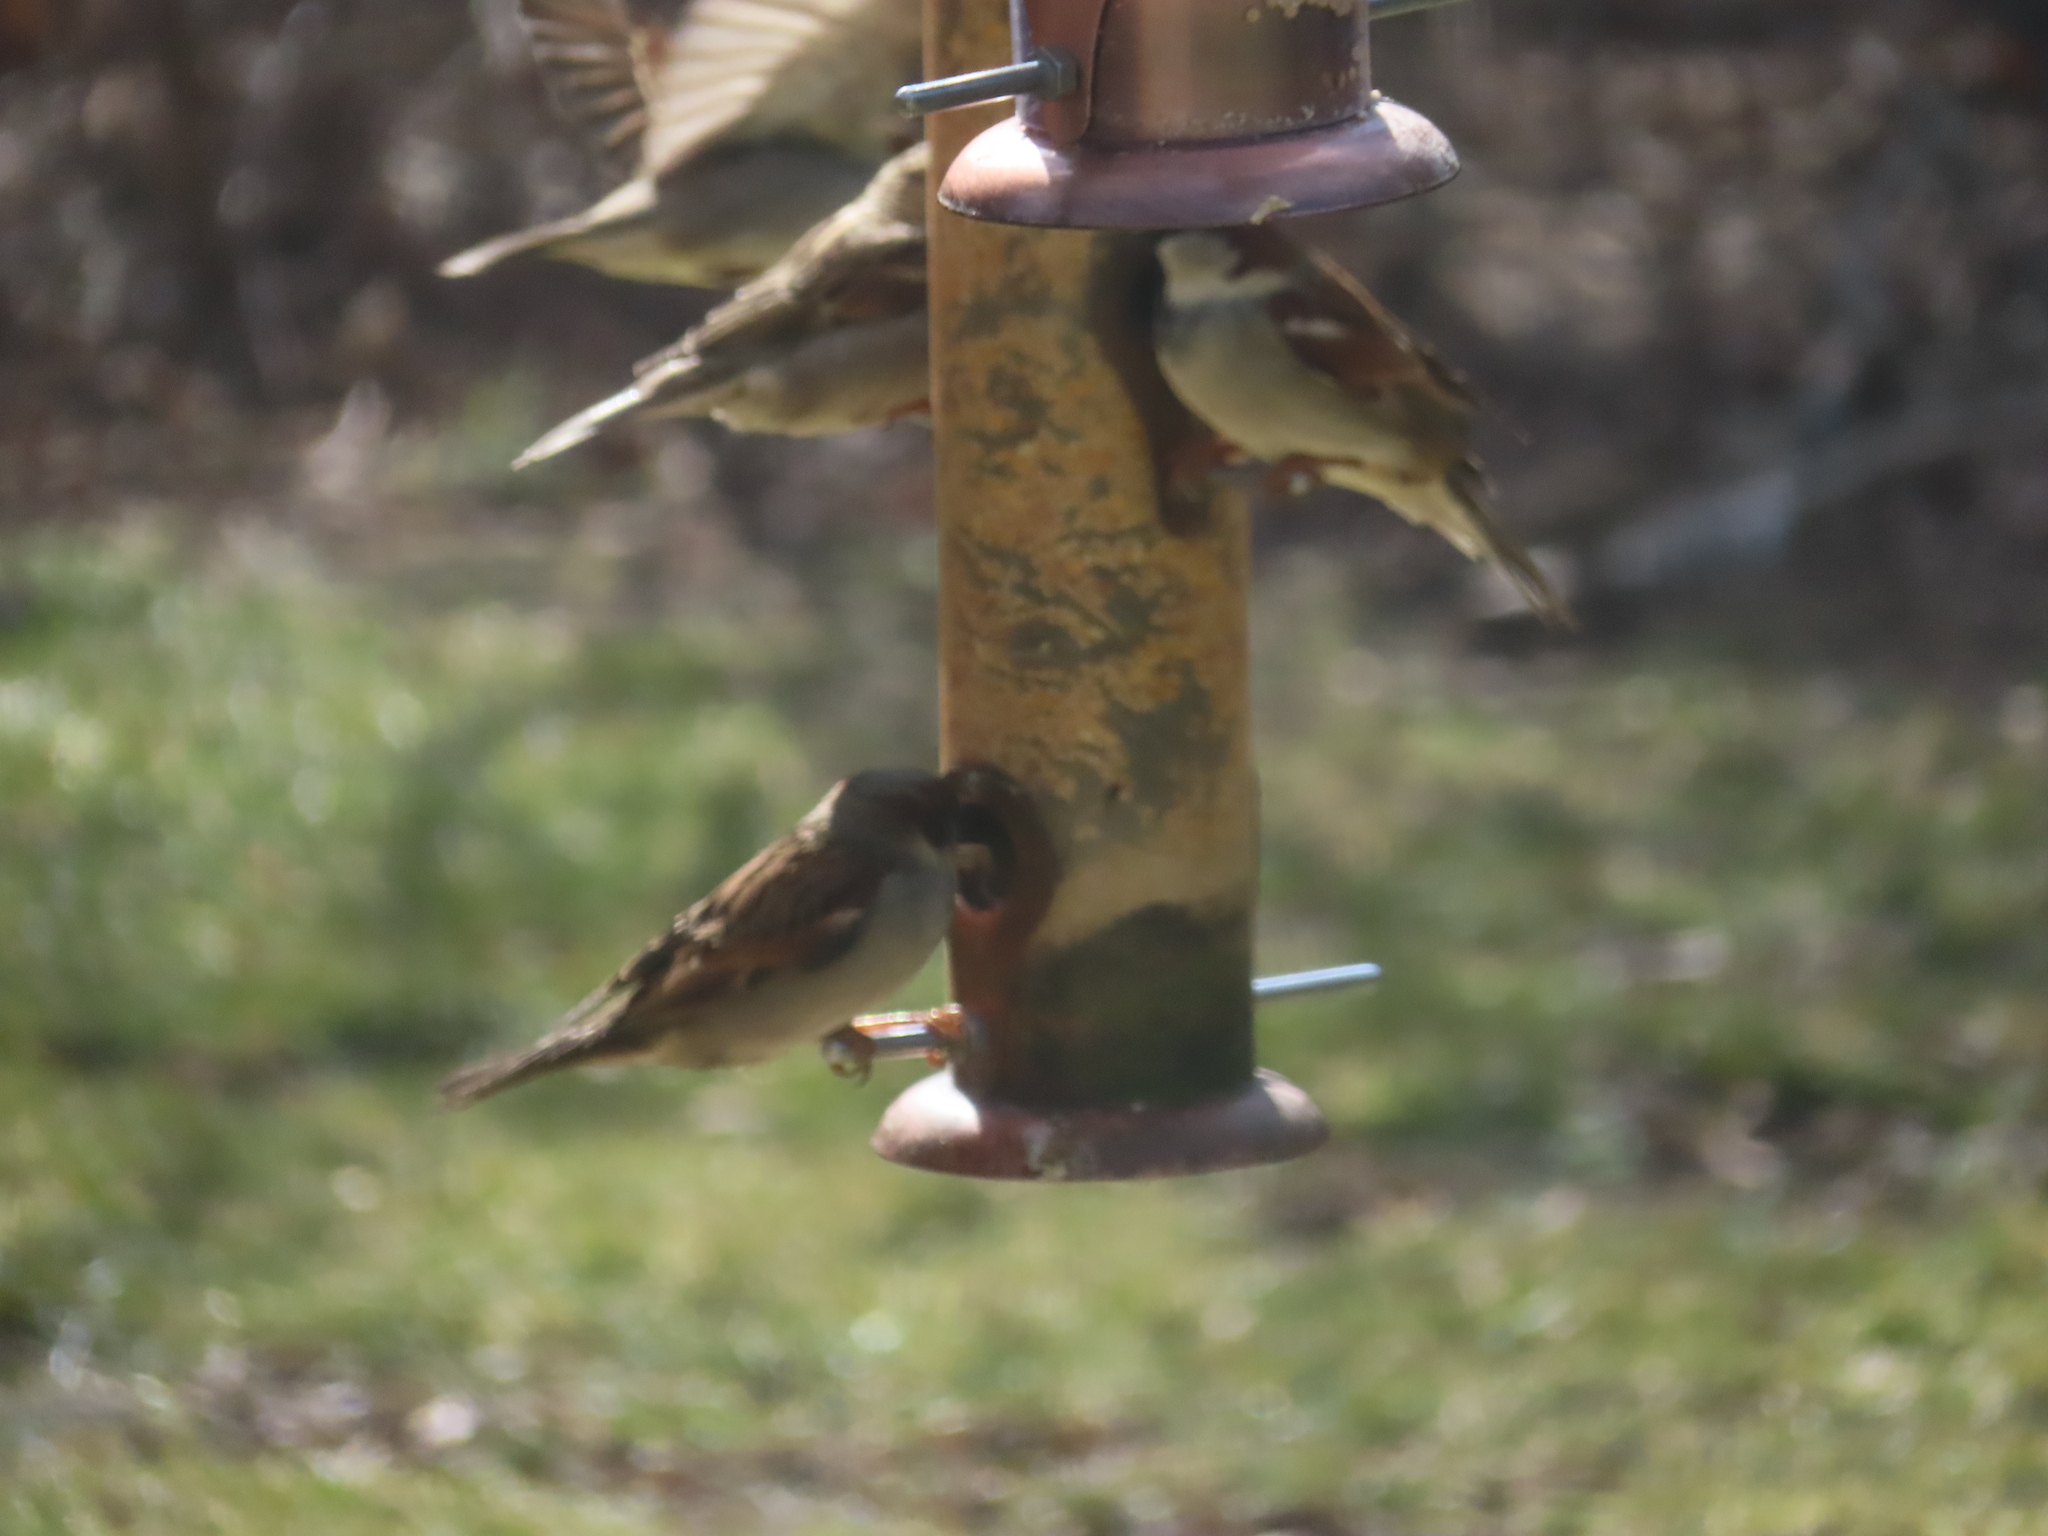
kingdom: Animalia
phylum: Chordata
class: Aves
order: Passeriformes
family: Passeridae
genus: Passer
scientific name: Passer domesticus
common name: House sparrow
